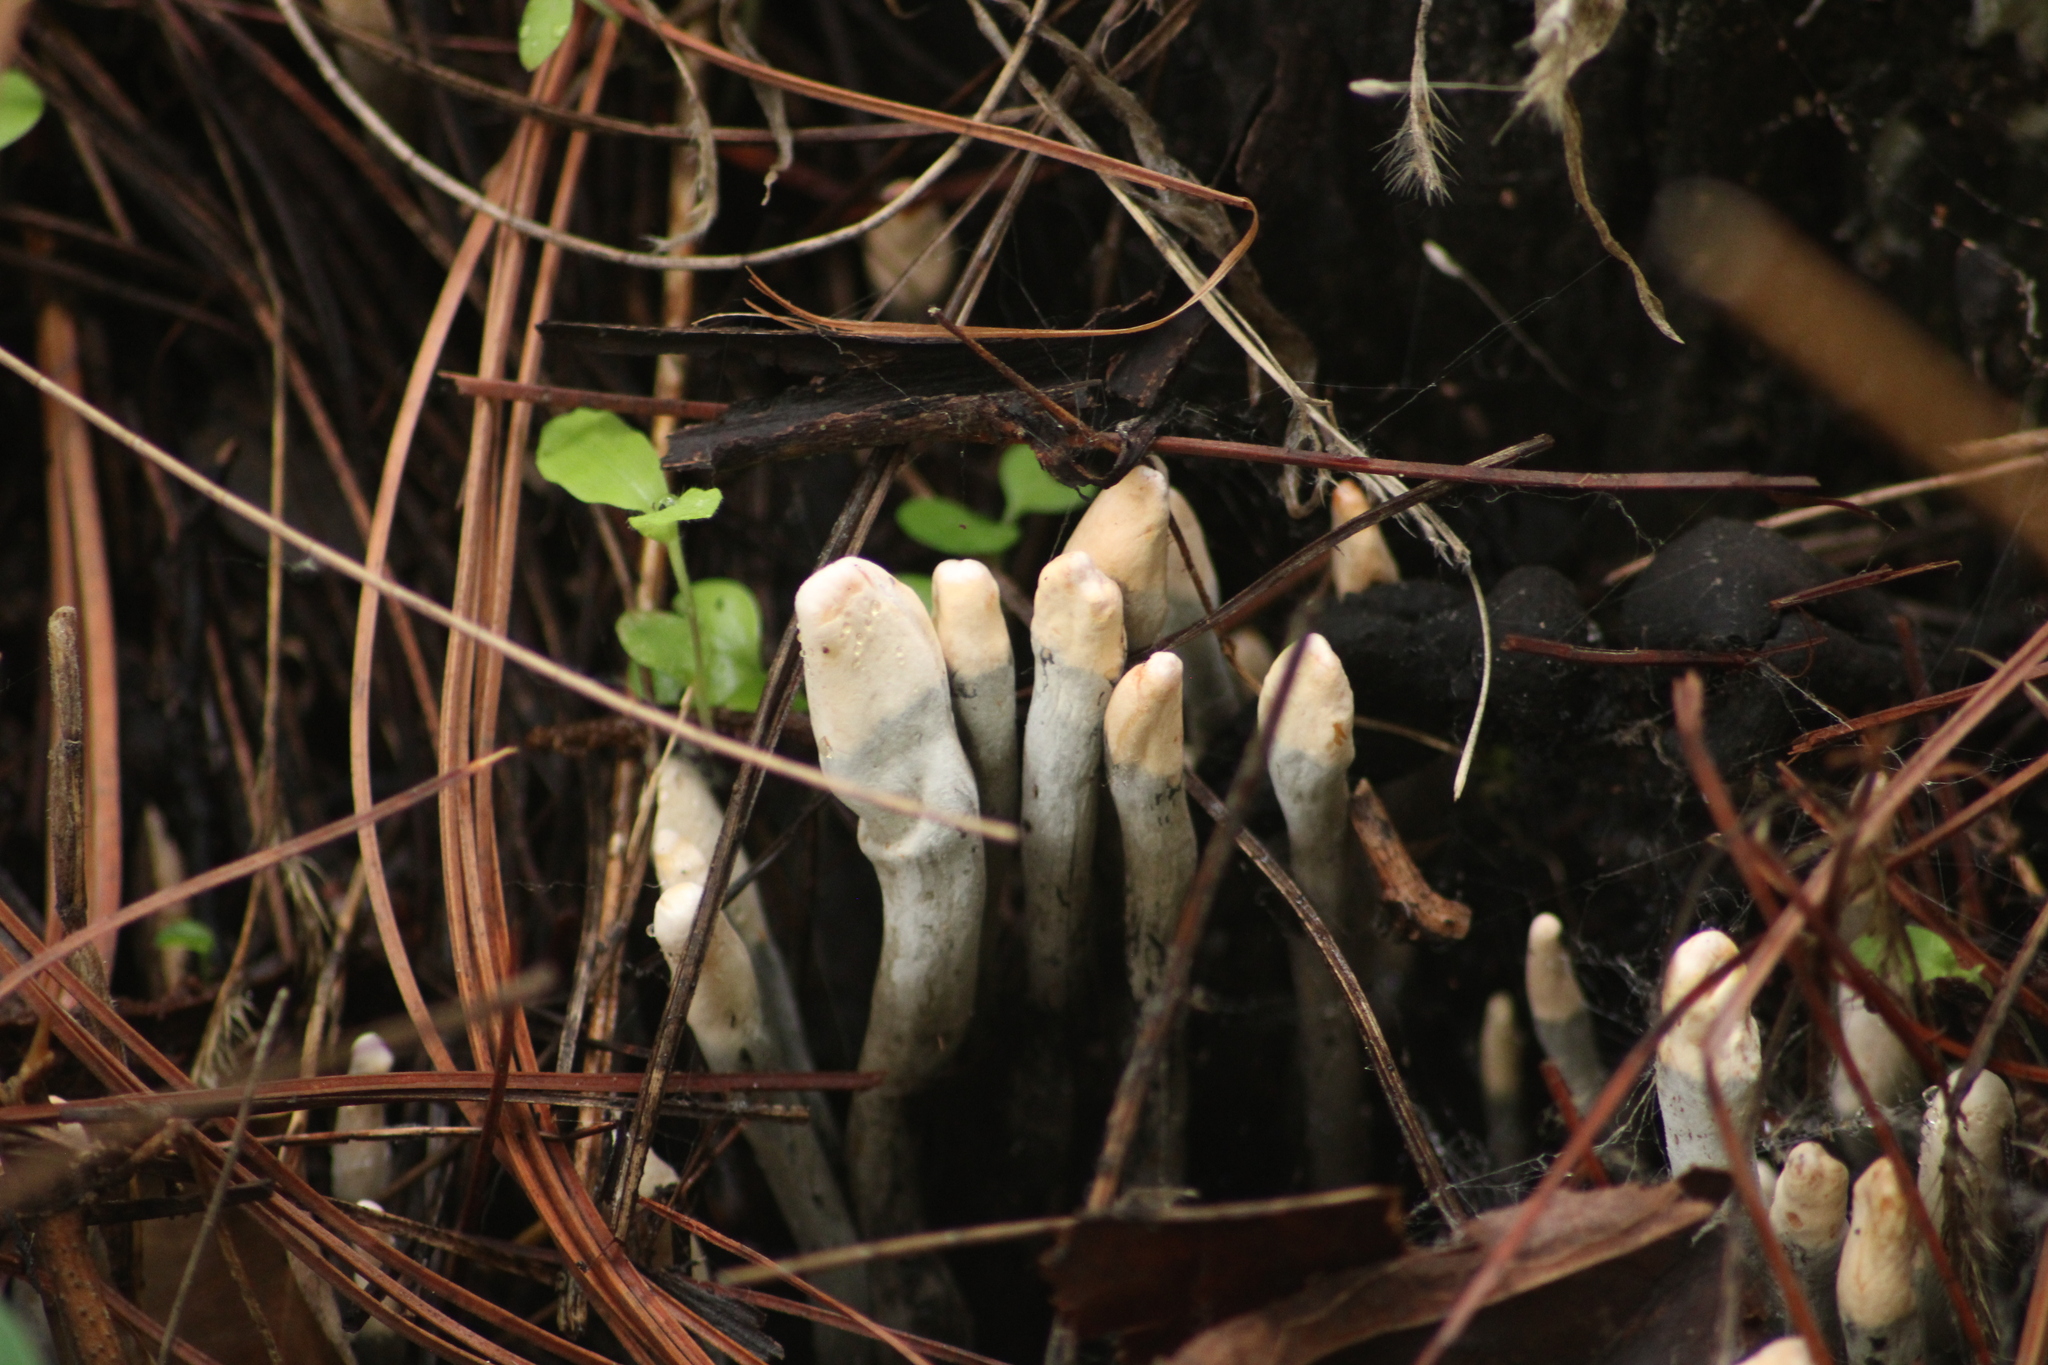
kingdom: Fungi
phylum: Ascomycota
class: Sordariomycetes
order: Xylariales
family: Xylariaceae
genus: Xylaria
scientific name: Xylaria polymorpha
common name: Dead man's fingers
